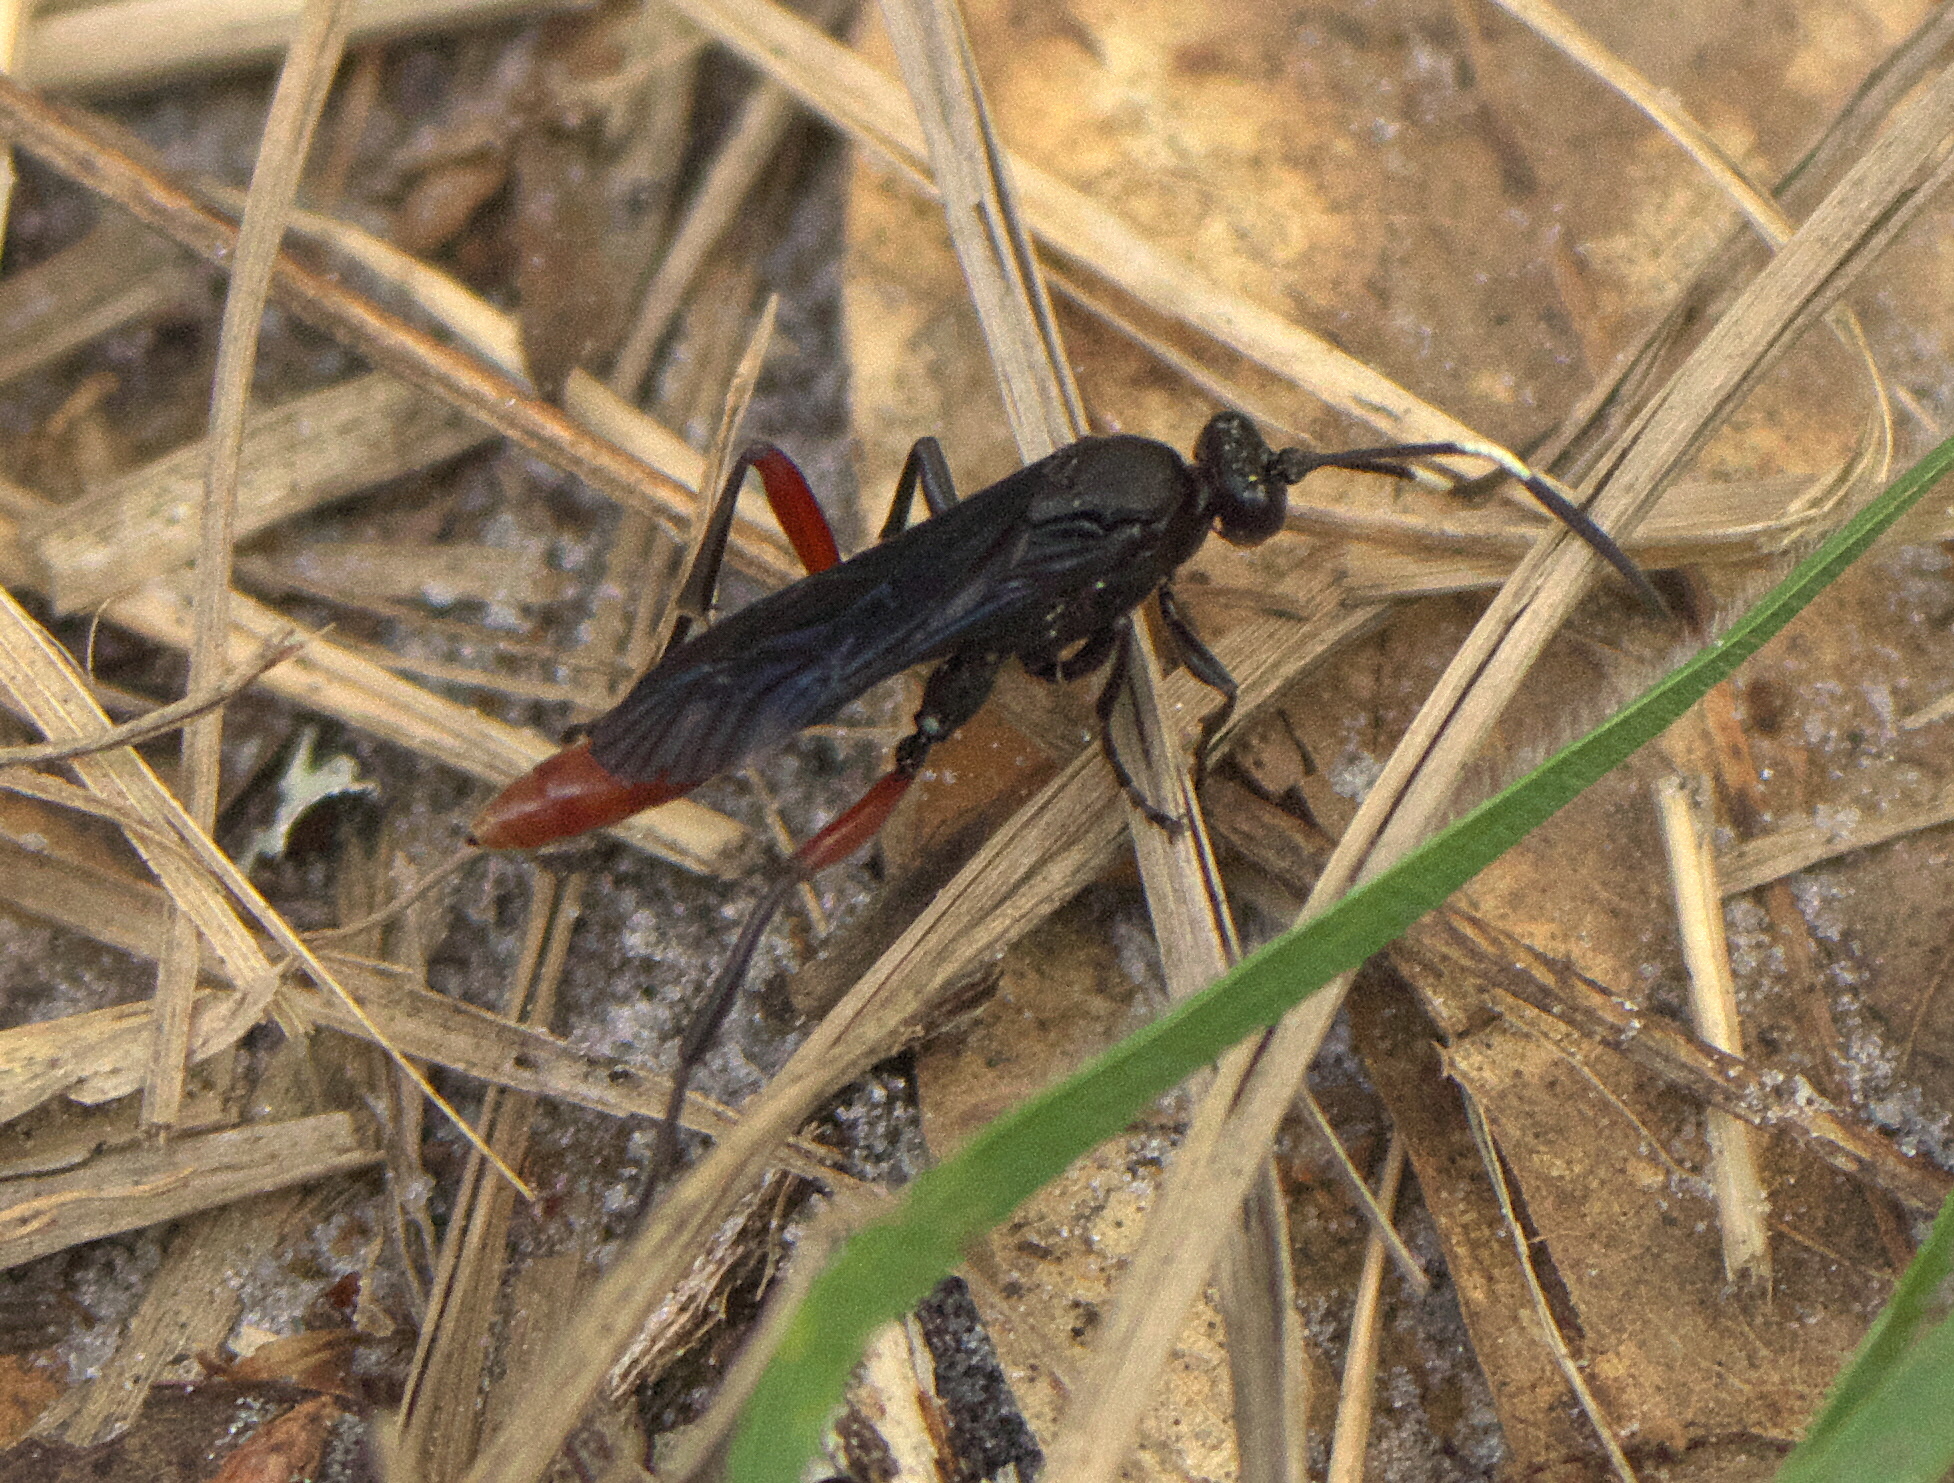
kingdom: Animalia
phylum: Arthropoda
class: Insecta
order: Hymenoptera
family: Ichneumonidae
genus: Limonethe
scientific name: Limonethe maurator
